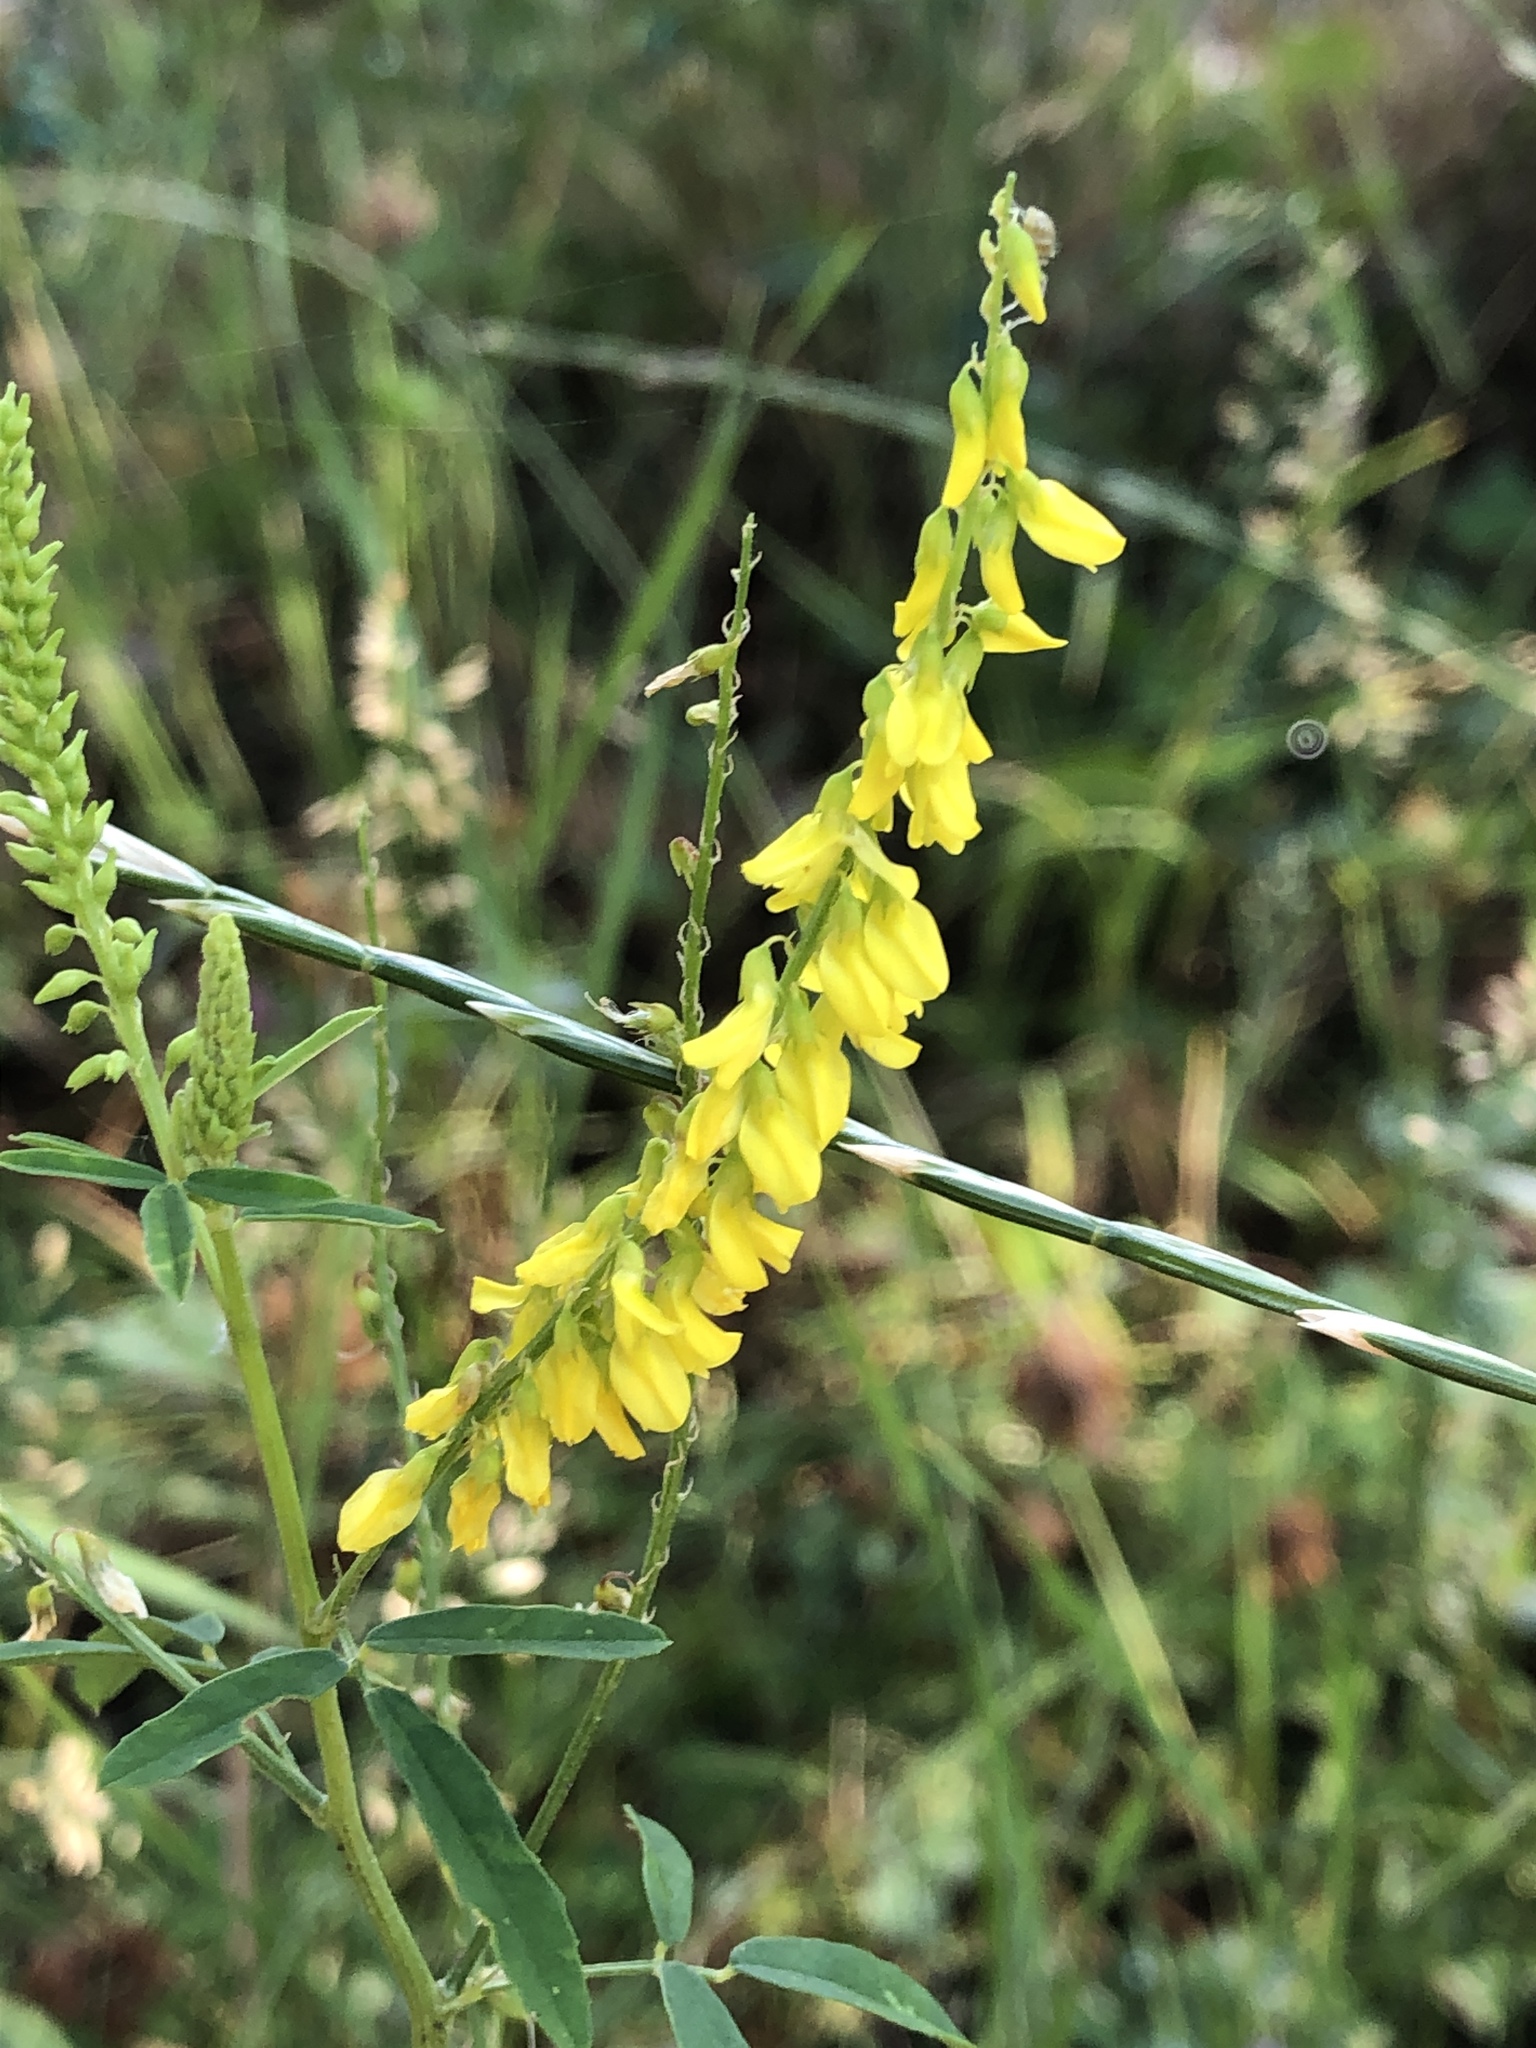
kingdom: Plantae
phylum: Tracheophyta
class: Magnoliopsida
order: Fabales
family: Fabaceae
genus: Melilotus
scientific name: Melilotus officinalis
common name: Sweetclover
